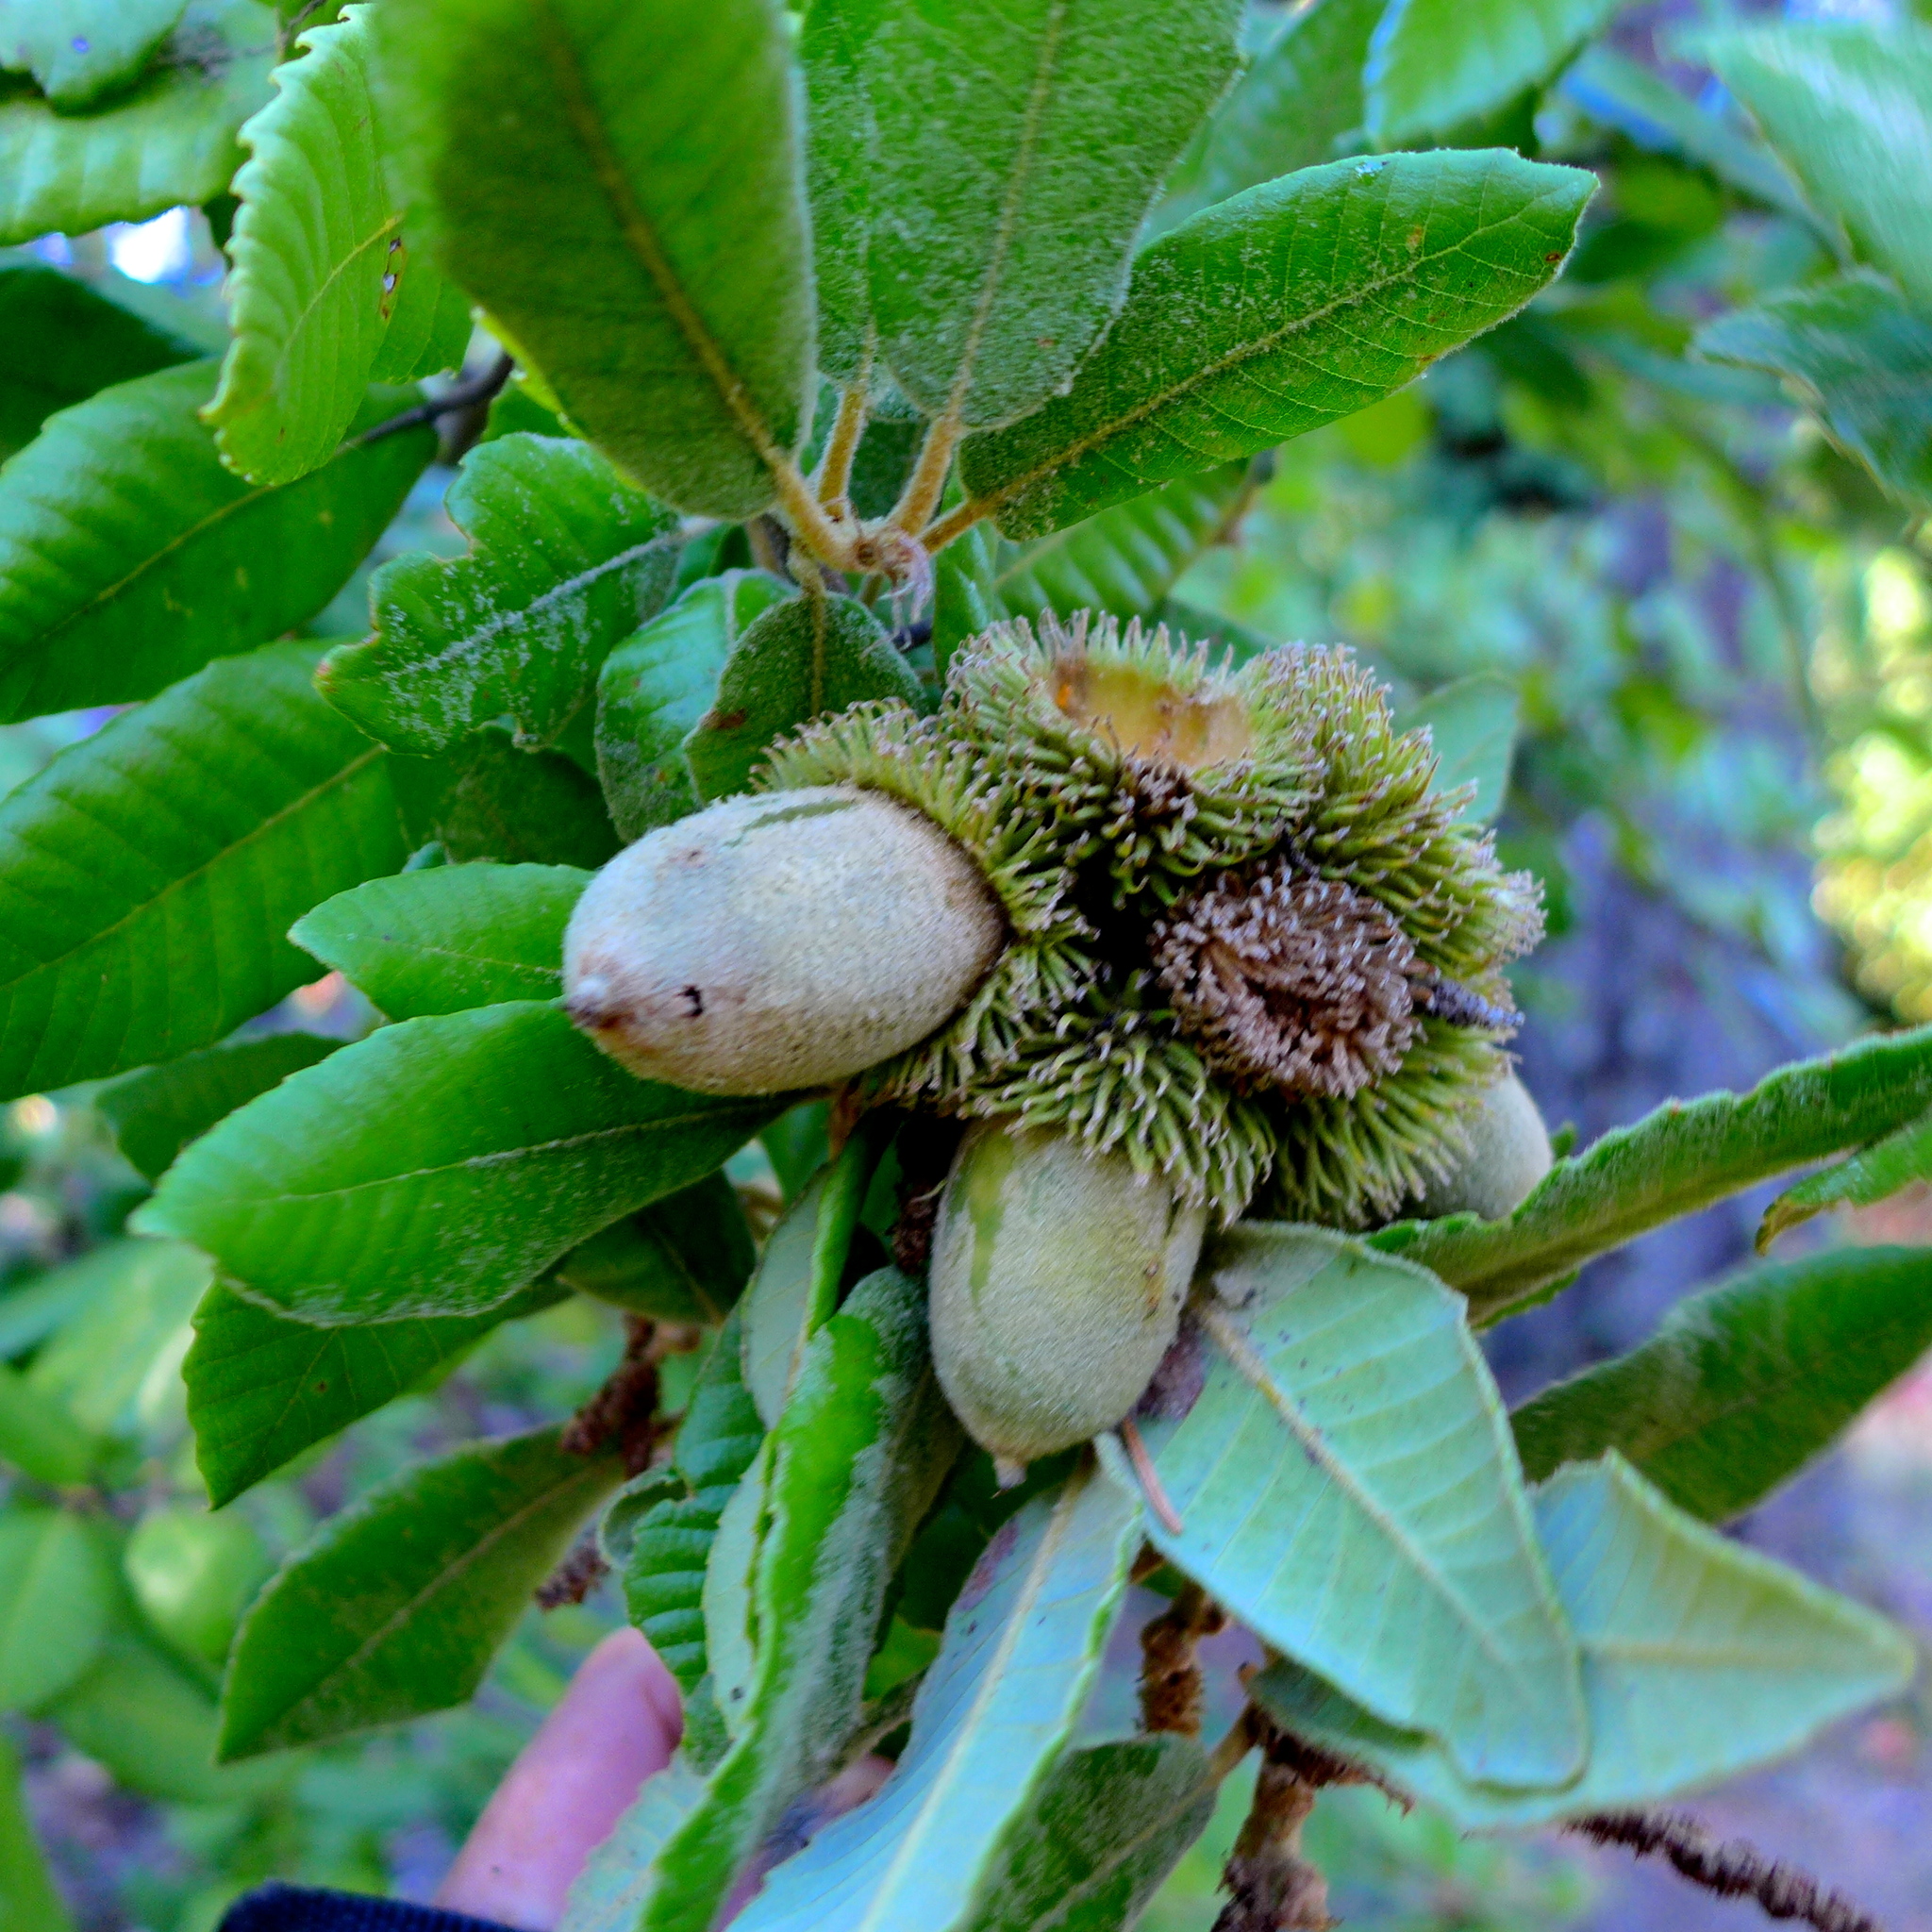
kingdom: Plantae
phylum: Tracheophyta
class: Magnoliopsida
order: Fagales
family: Fagaceae
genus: Notholithocarpus
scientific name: Notholithocarpus densiflorus
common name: Tan bark oak
